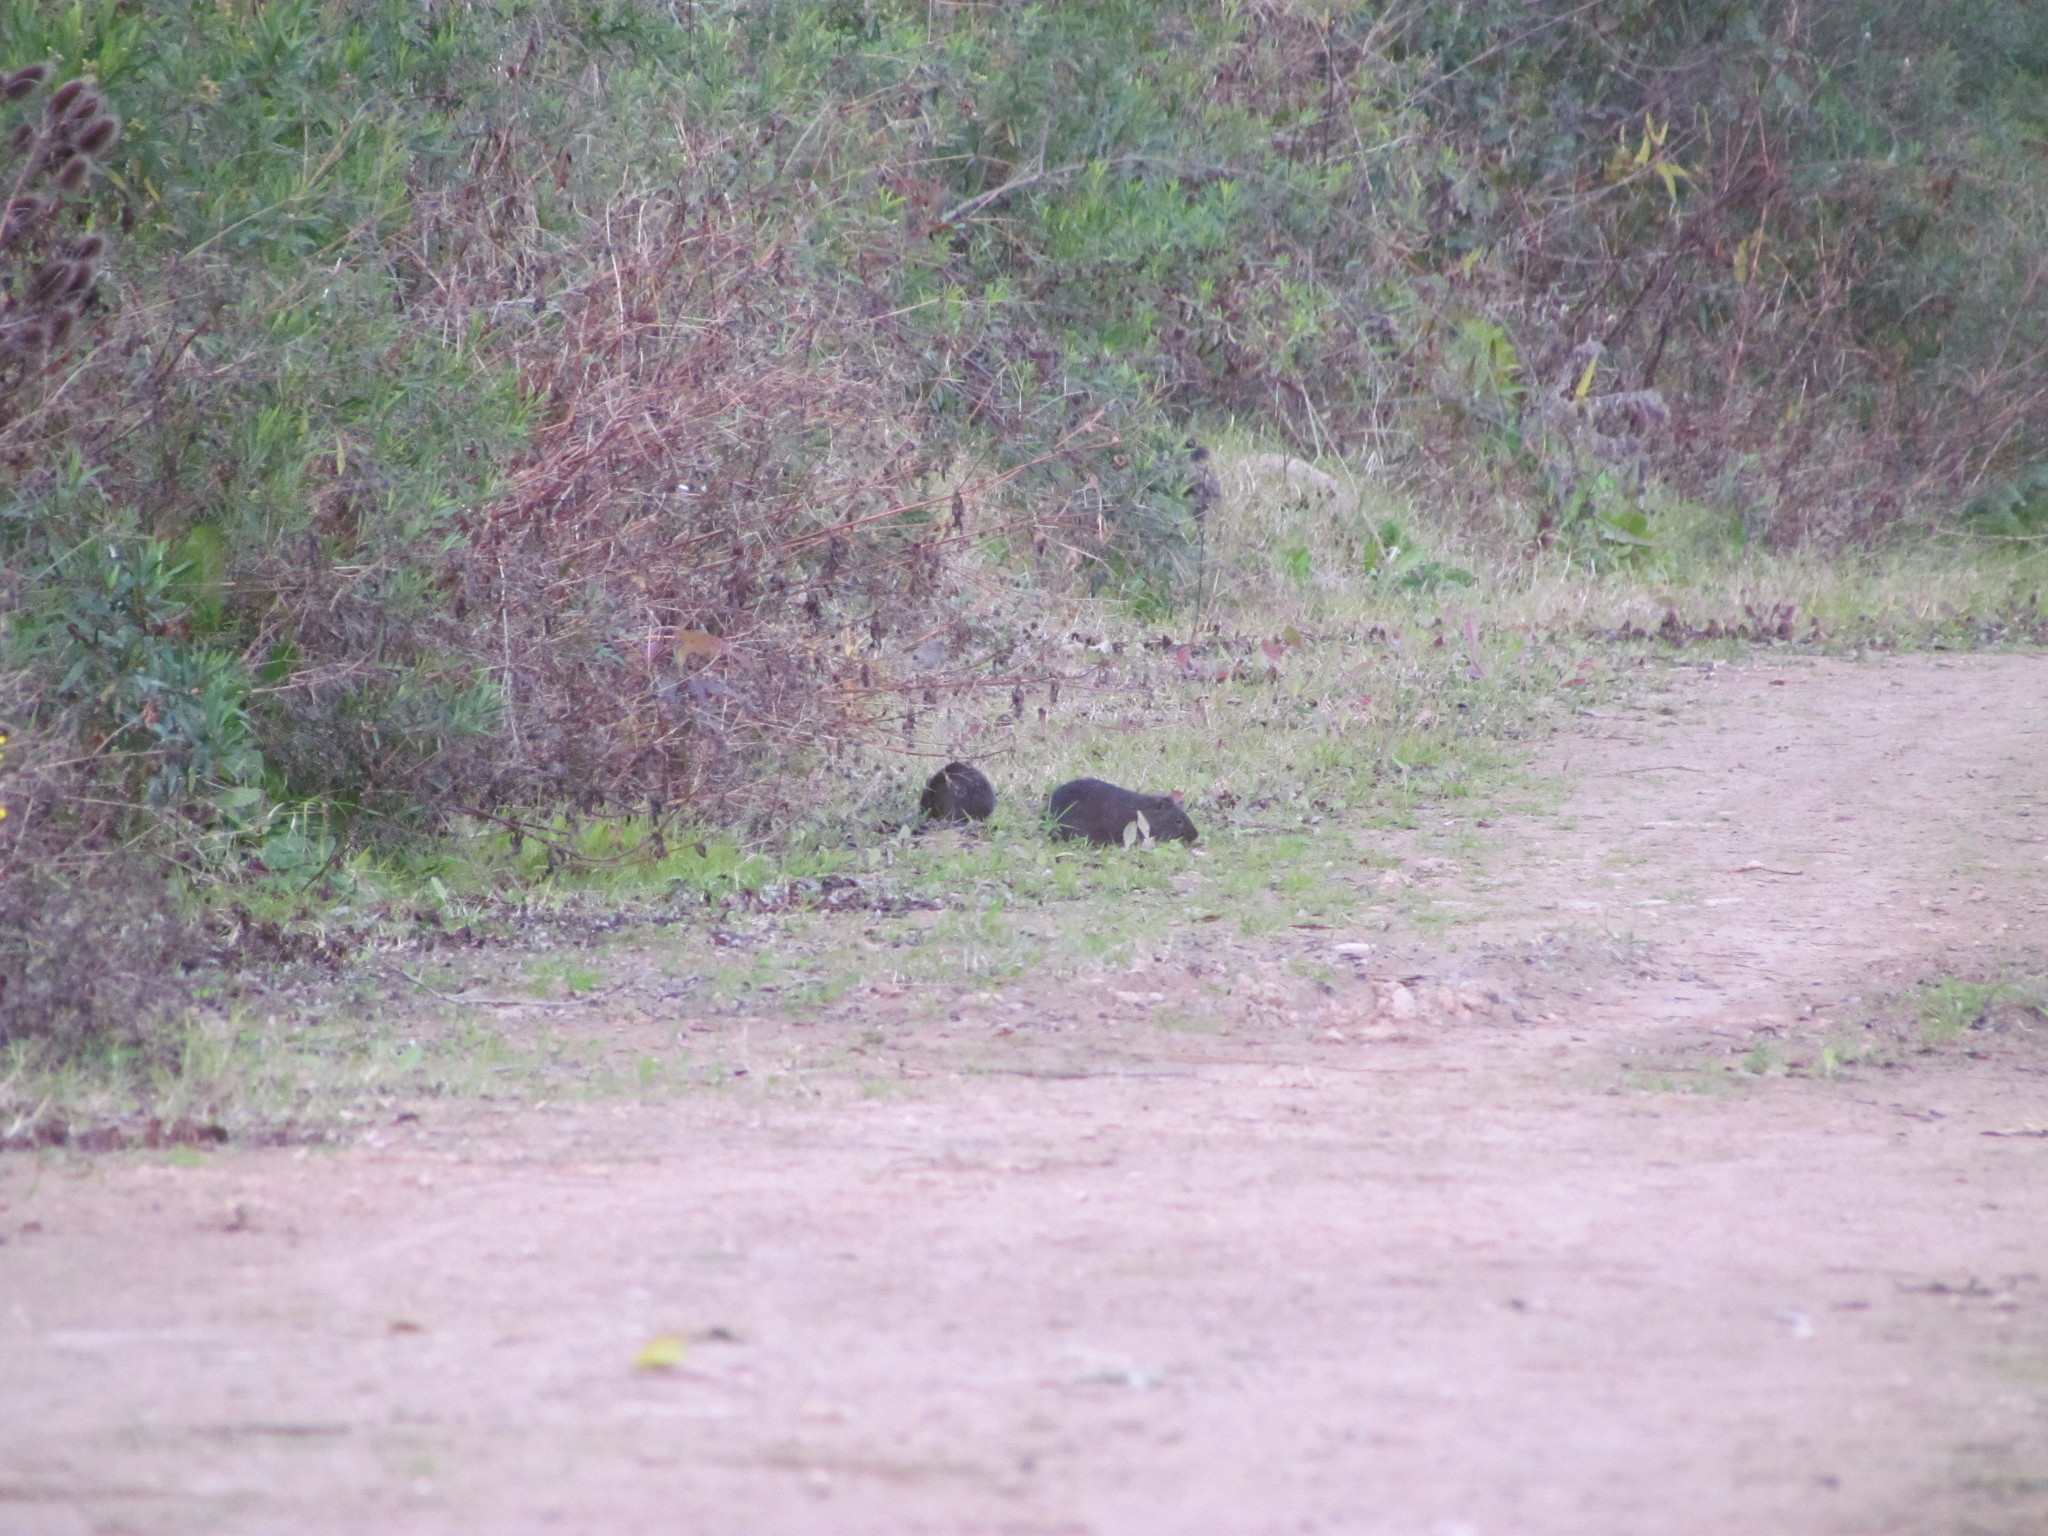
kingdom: Animalia
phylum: Chordata
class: Mammalia
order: Rodentia
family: Caviidae
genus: Cavia
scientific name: Cavia aperea
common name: Brazilian guinea pig
